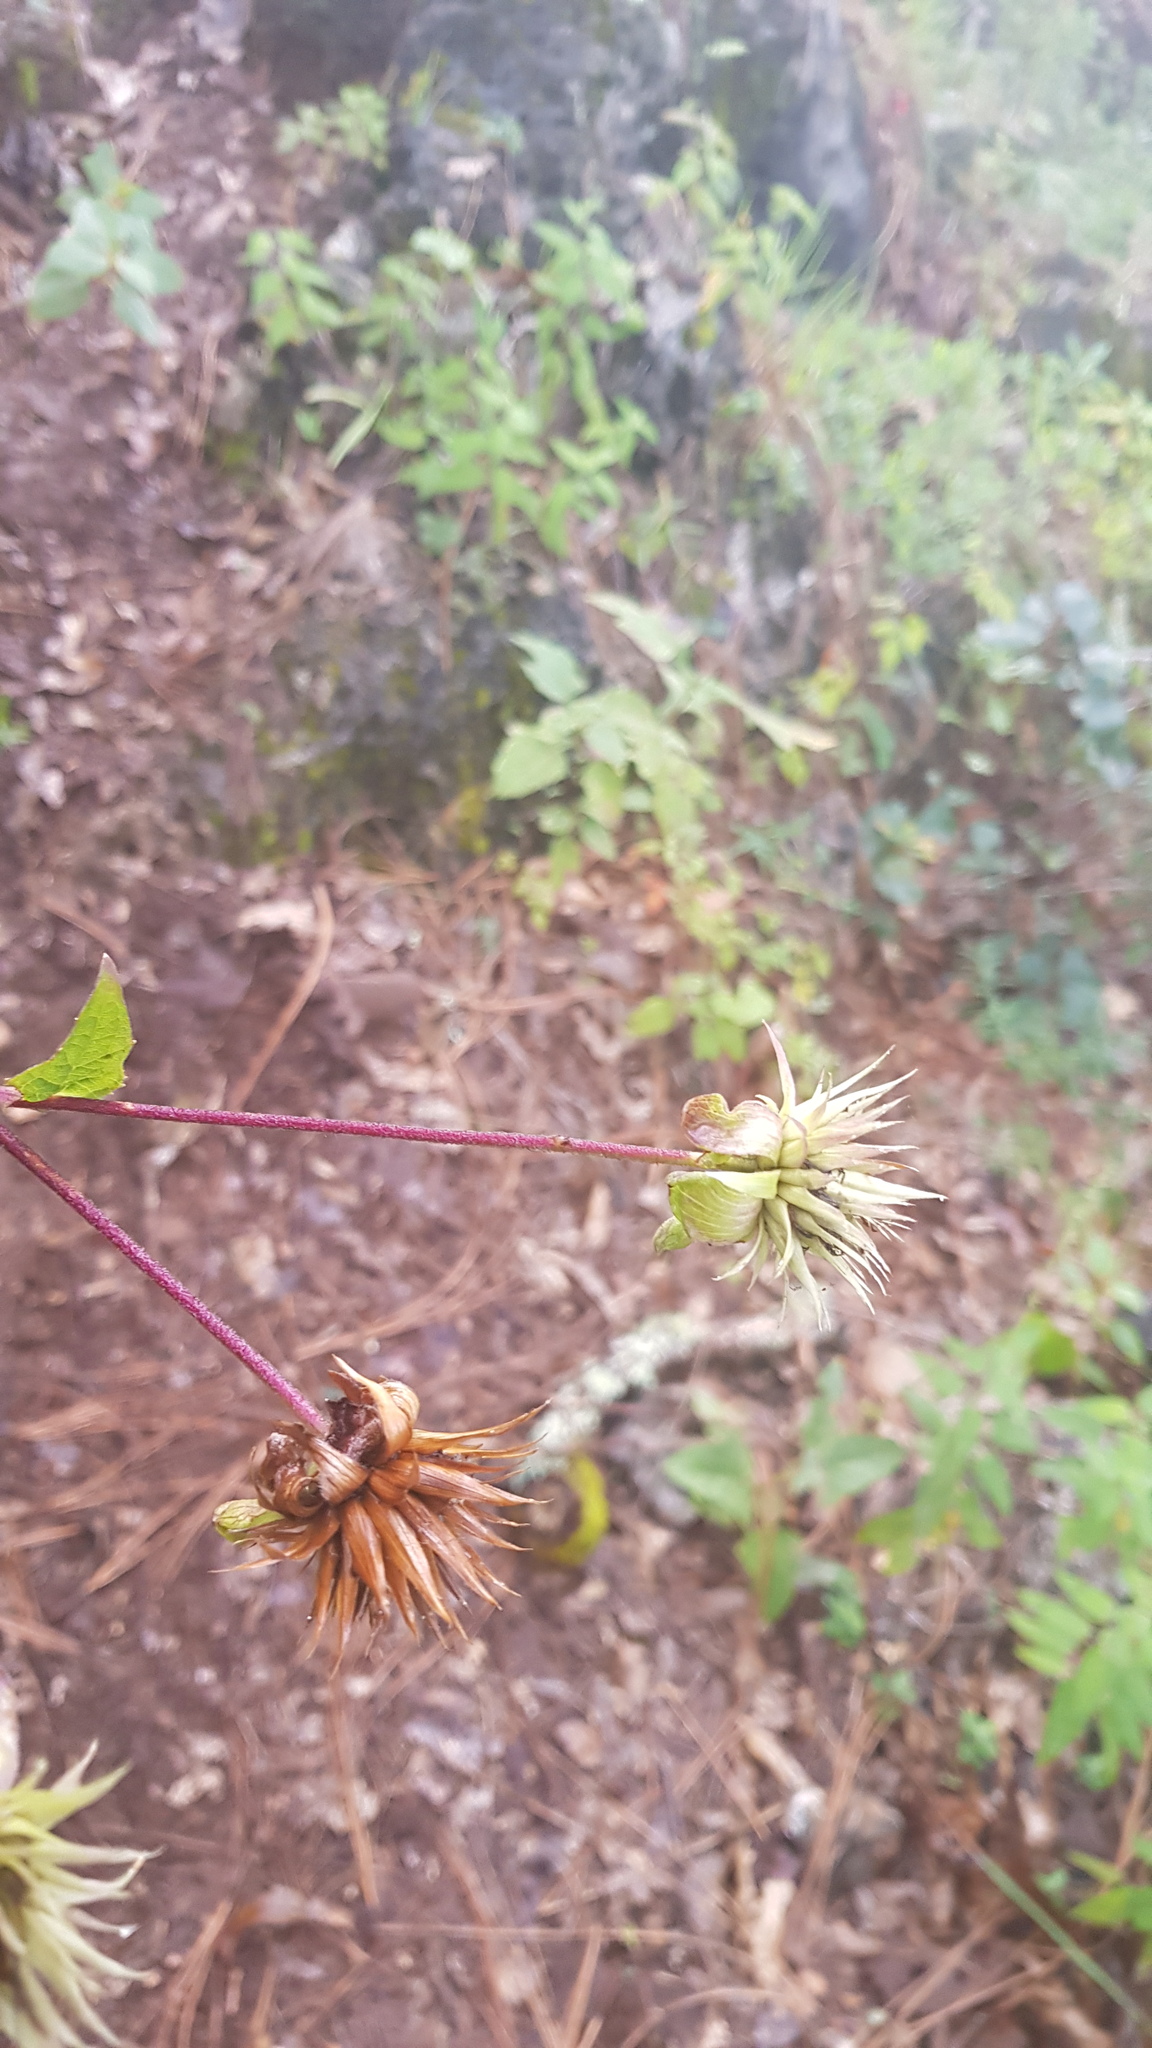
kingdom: Plantae
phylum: Tracheophyta
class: Magnoliopsida
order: Asterales
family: Asteraceae
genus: Montanoa
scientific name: Montanoa liebmannii
